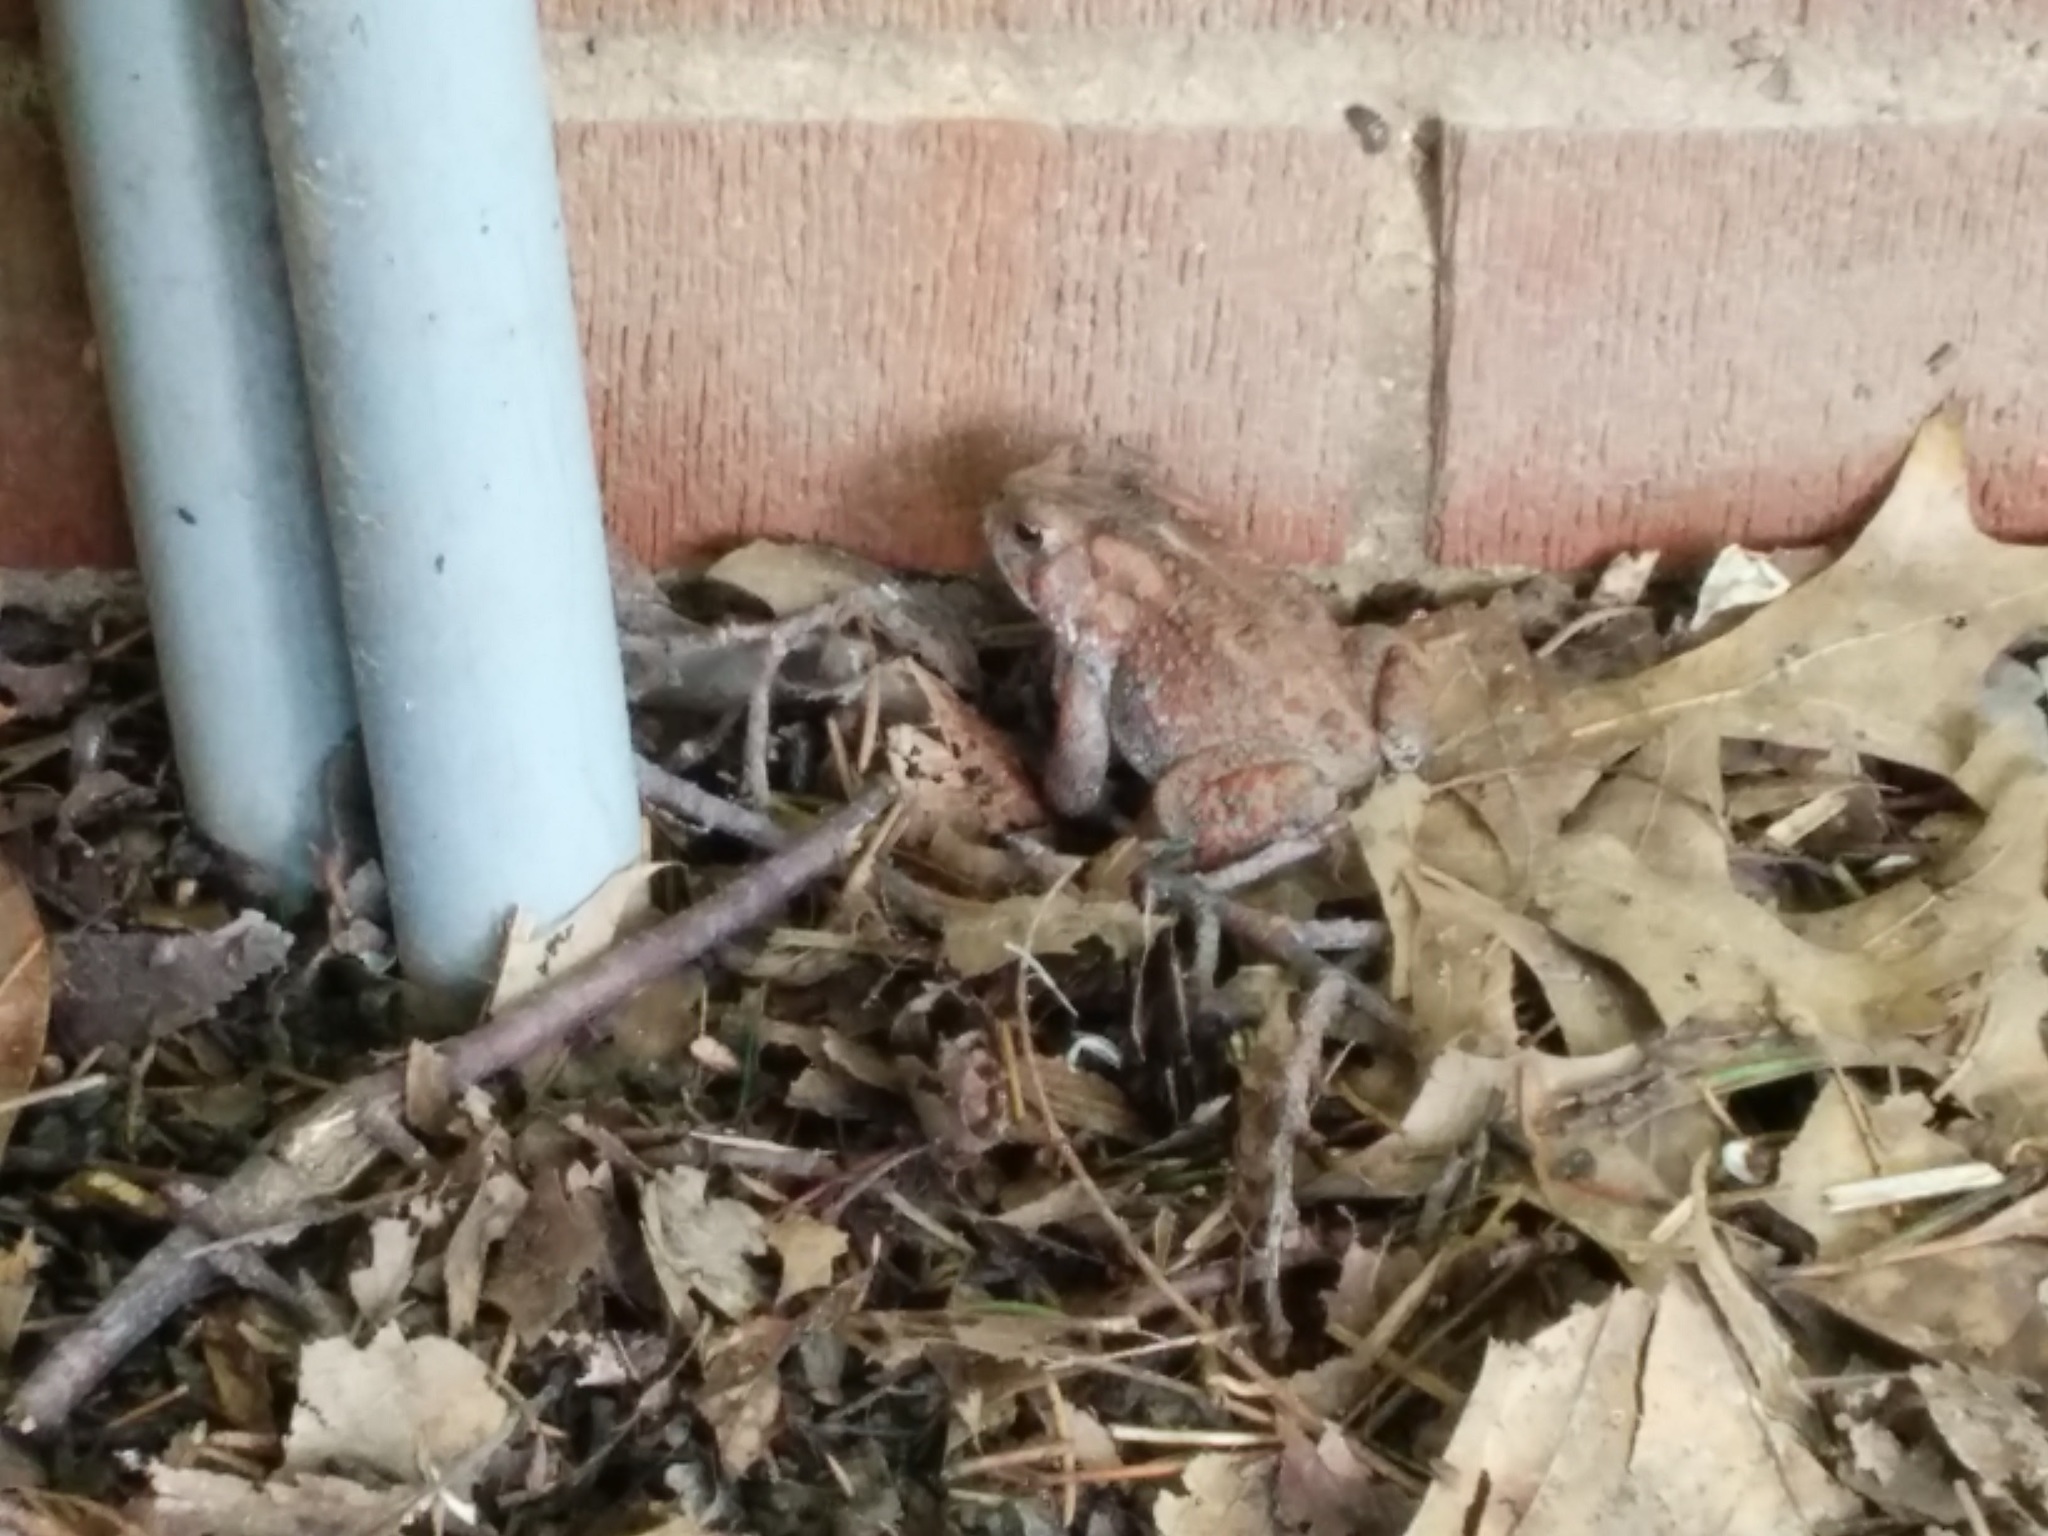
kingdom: Animalia
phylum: Chordata
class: Amphibia
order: Anura
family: Bufonidae
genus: Anaxyrus
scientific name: Anaxyrus americanus
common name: American toad
